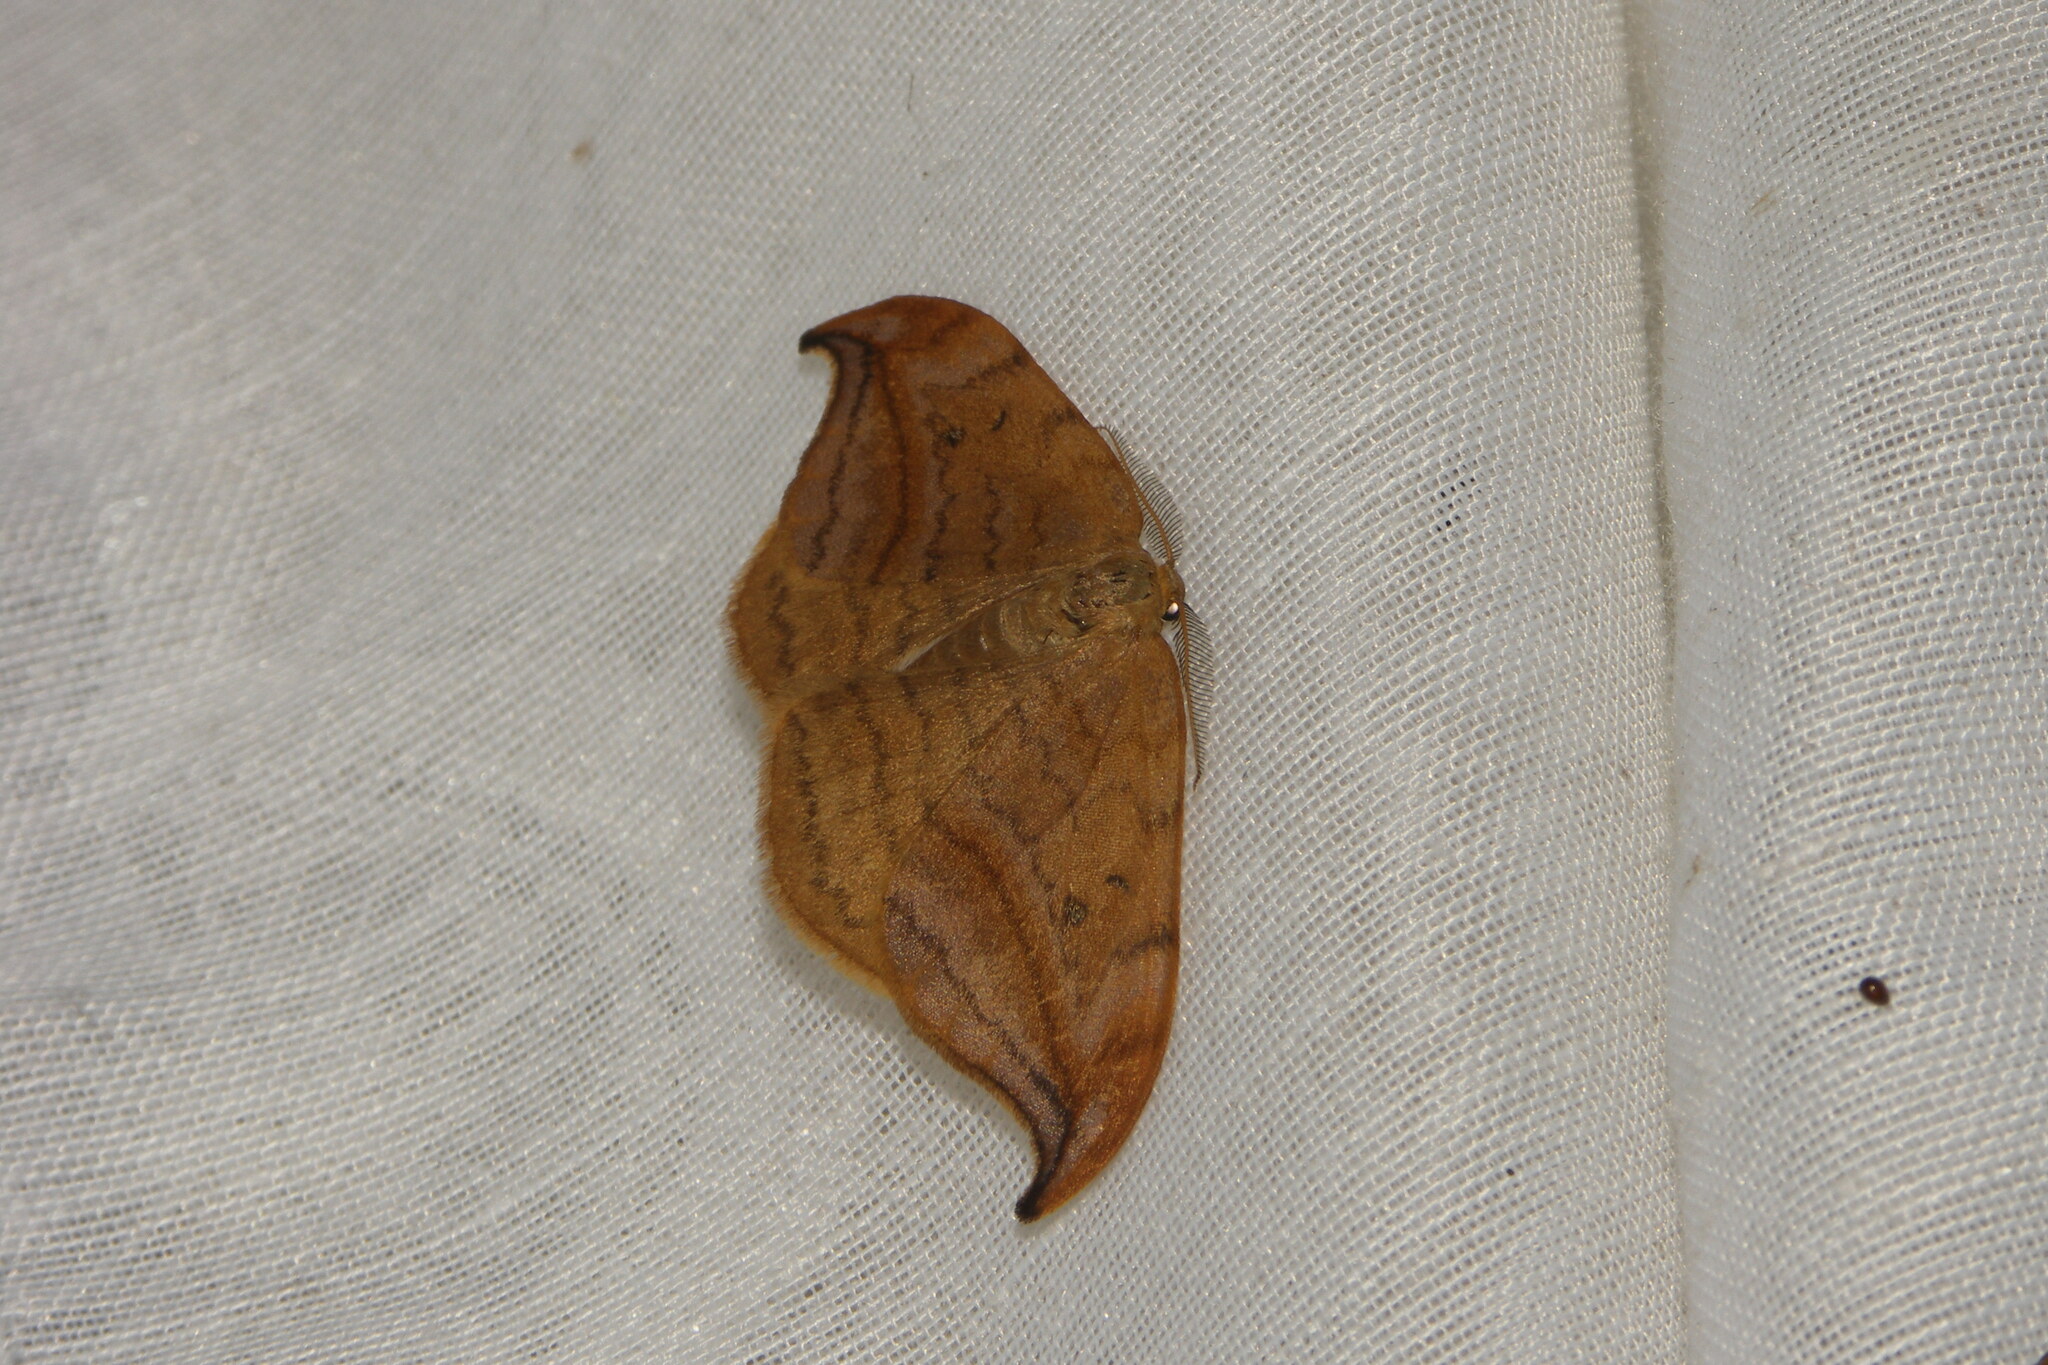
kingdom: Animalia
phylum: Arthropoda
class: Insecta
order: Lepidoptera
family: Drepanidae
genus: Drepana
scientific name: Drepana curvatula
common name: Dusky hook-tip
